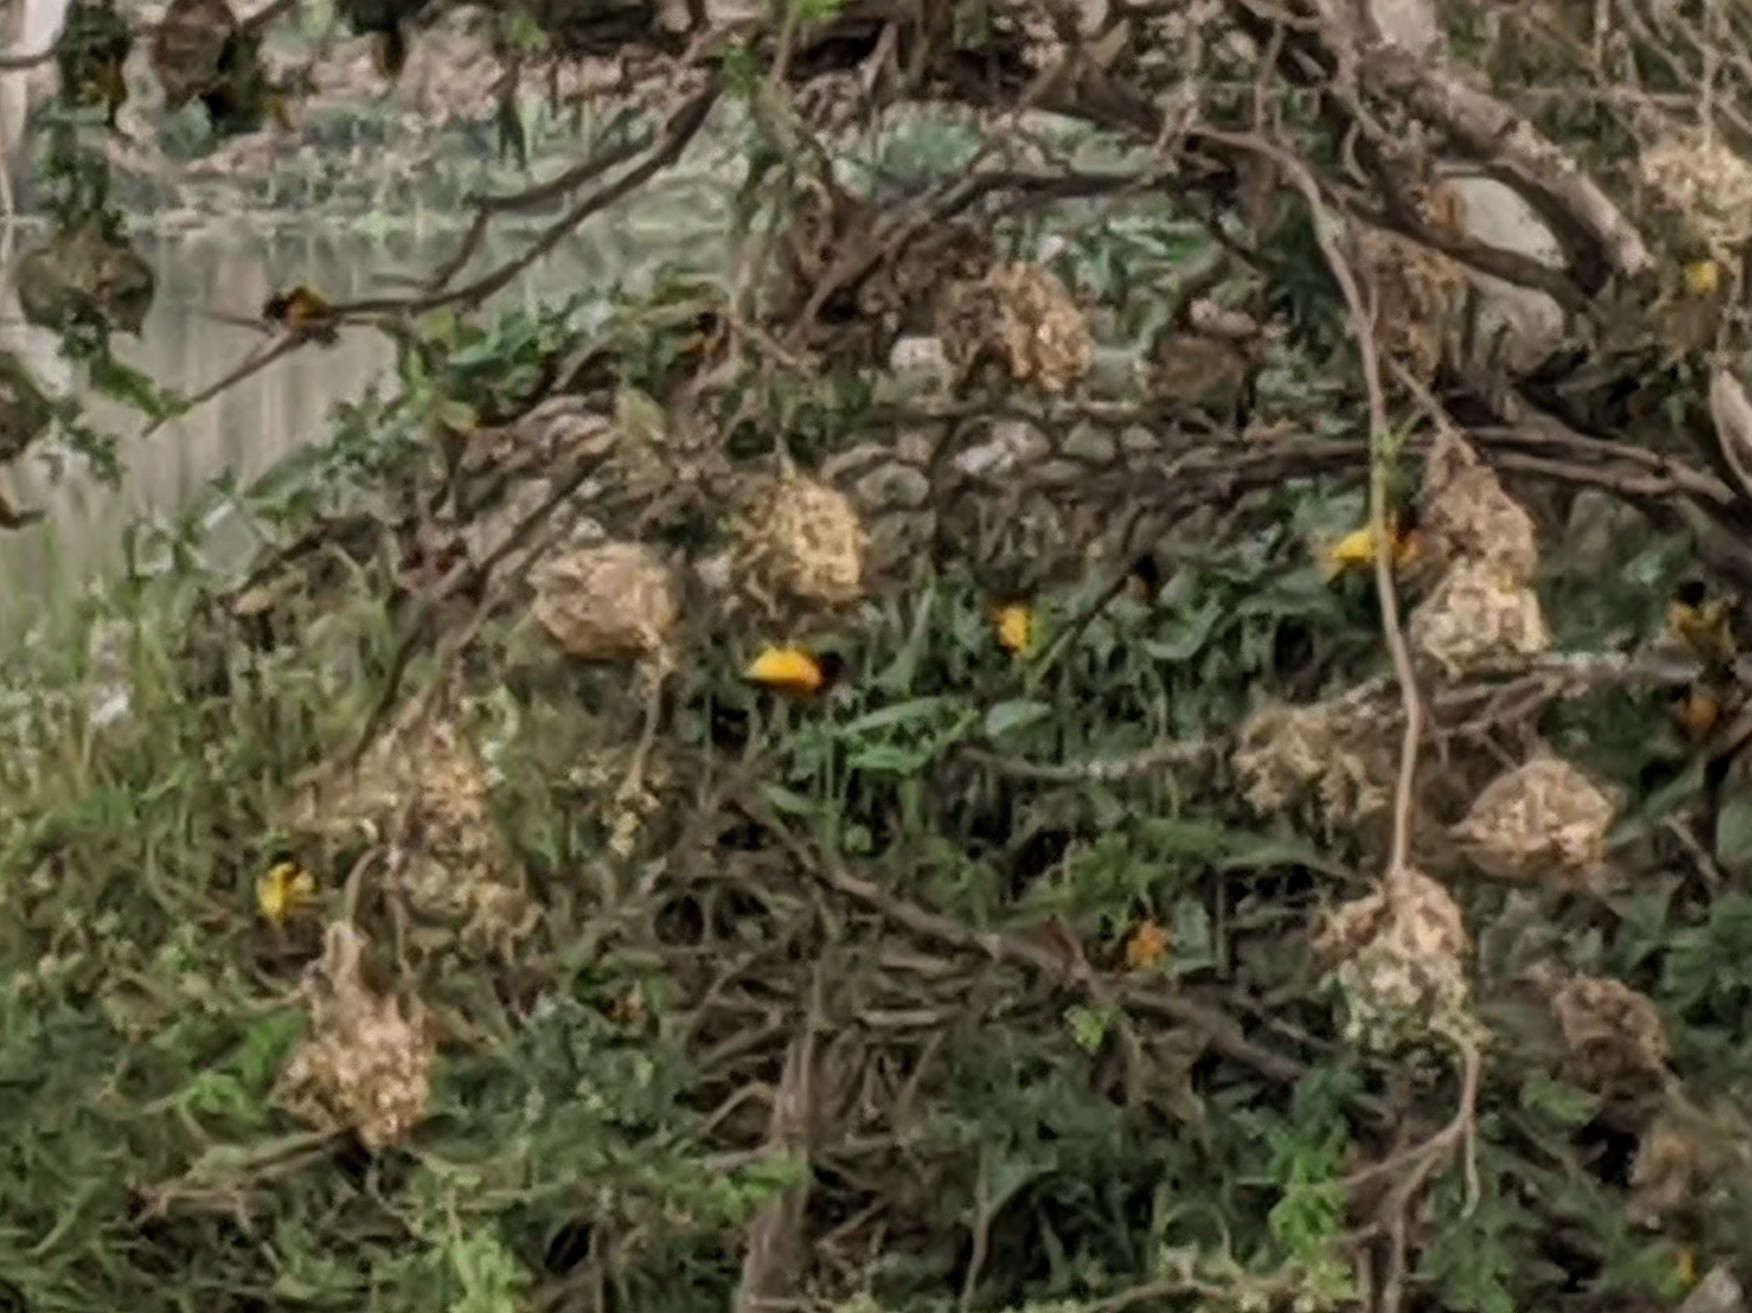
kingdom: Animalia
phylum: Chordata
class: Aves
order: Passeriformes
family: Ploceidae
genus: Ploceus
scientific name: Ploceus cucullatus
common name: Village weaver
